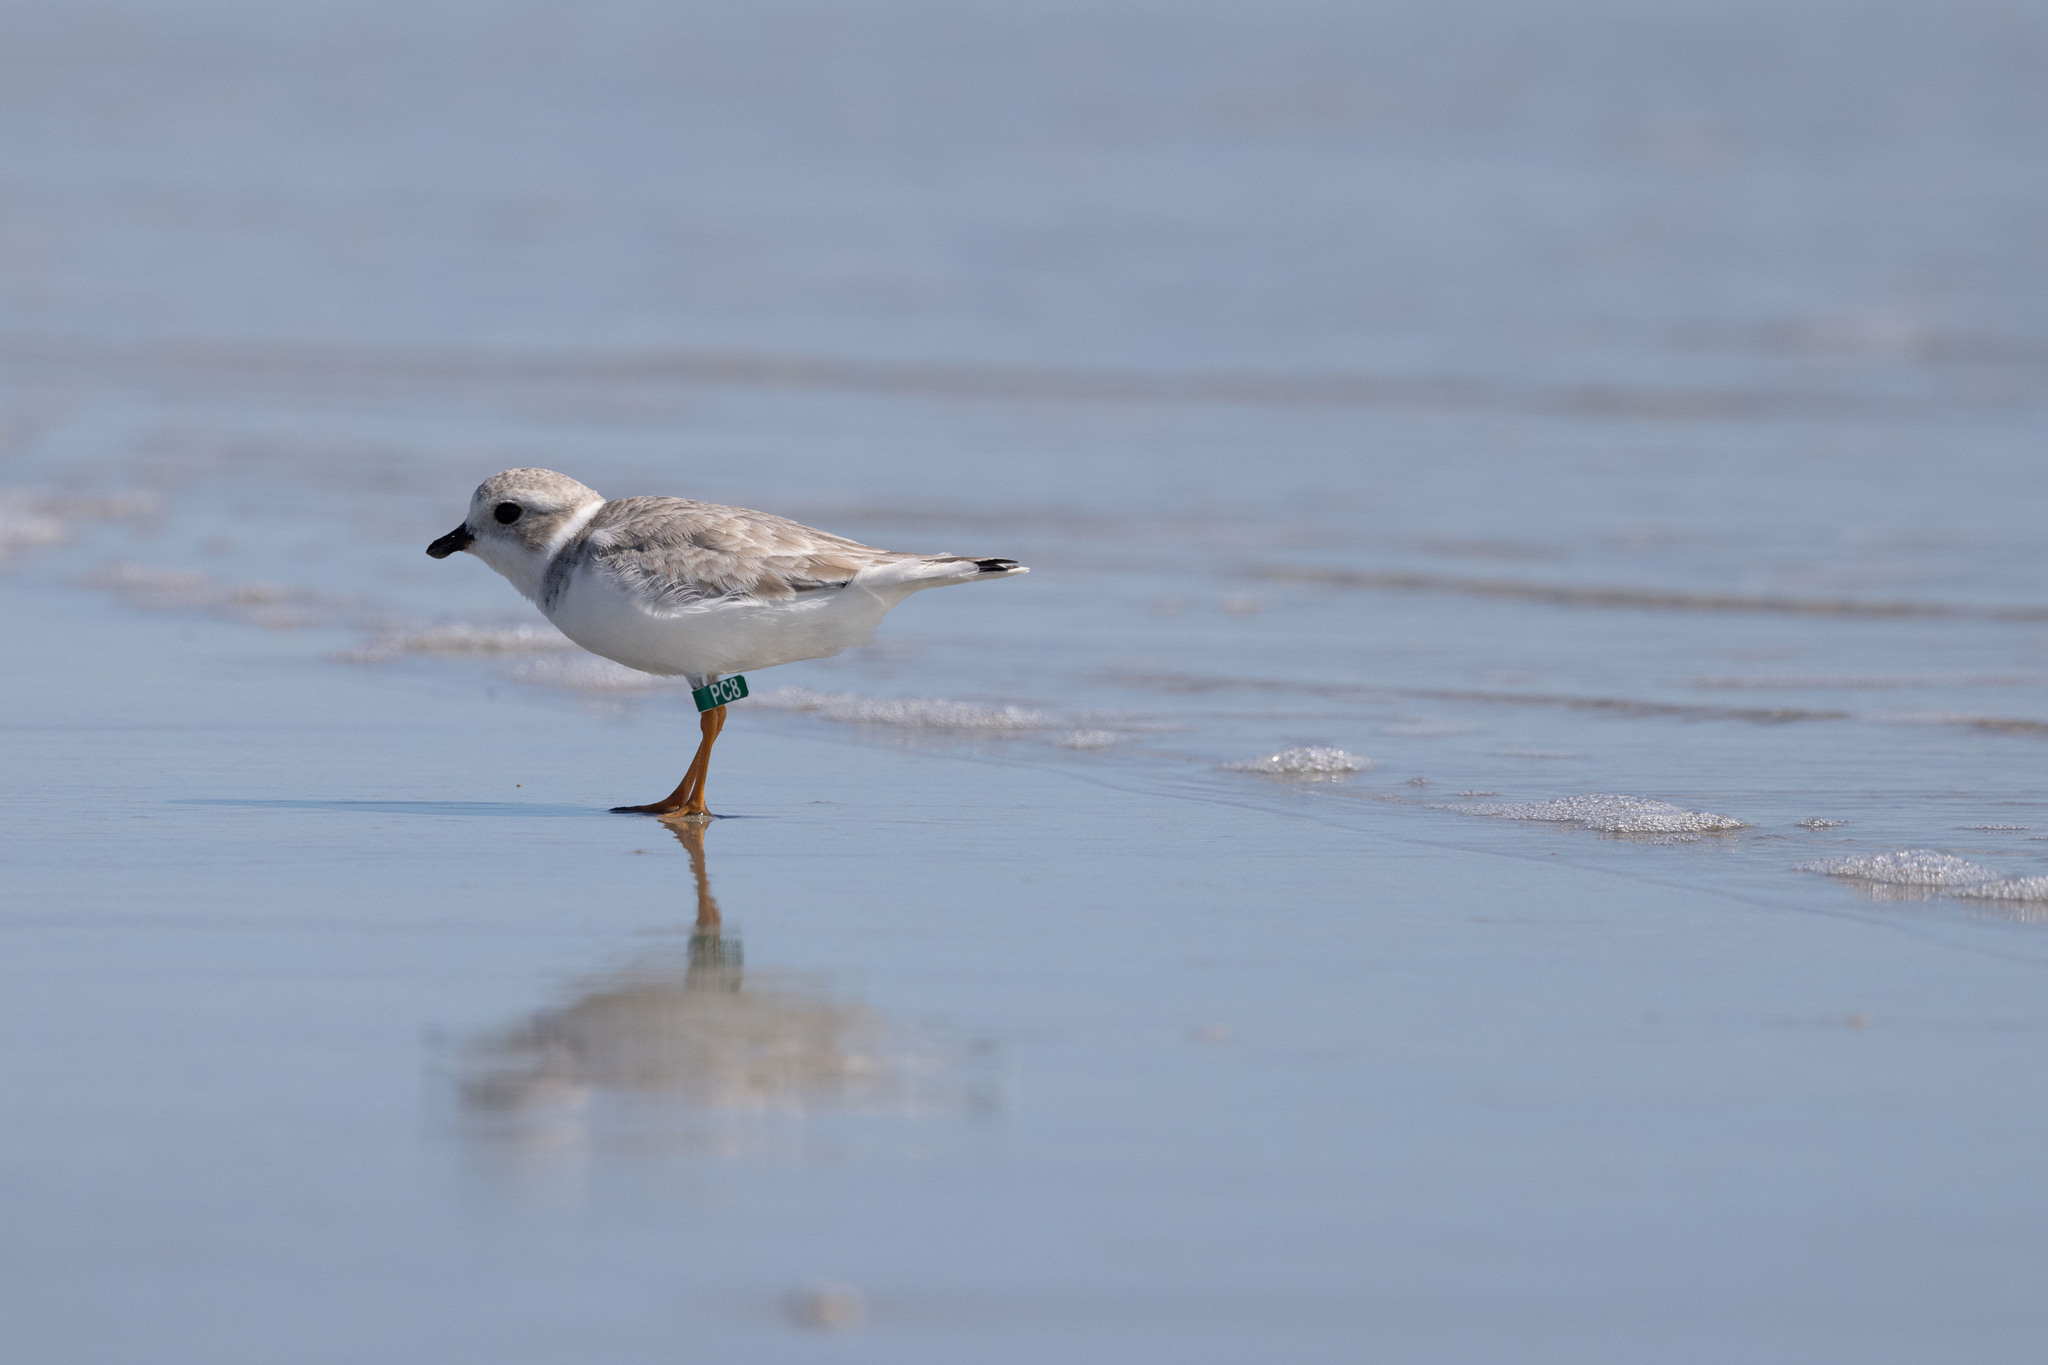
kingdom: Animalia
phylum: Chordata
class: Aves
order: Charadriiformes
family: Charadriidae
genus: Charadrius
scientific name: Charadrius melodus
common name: Piping plover
